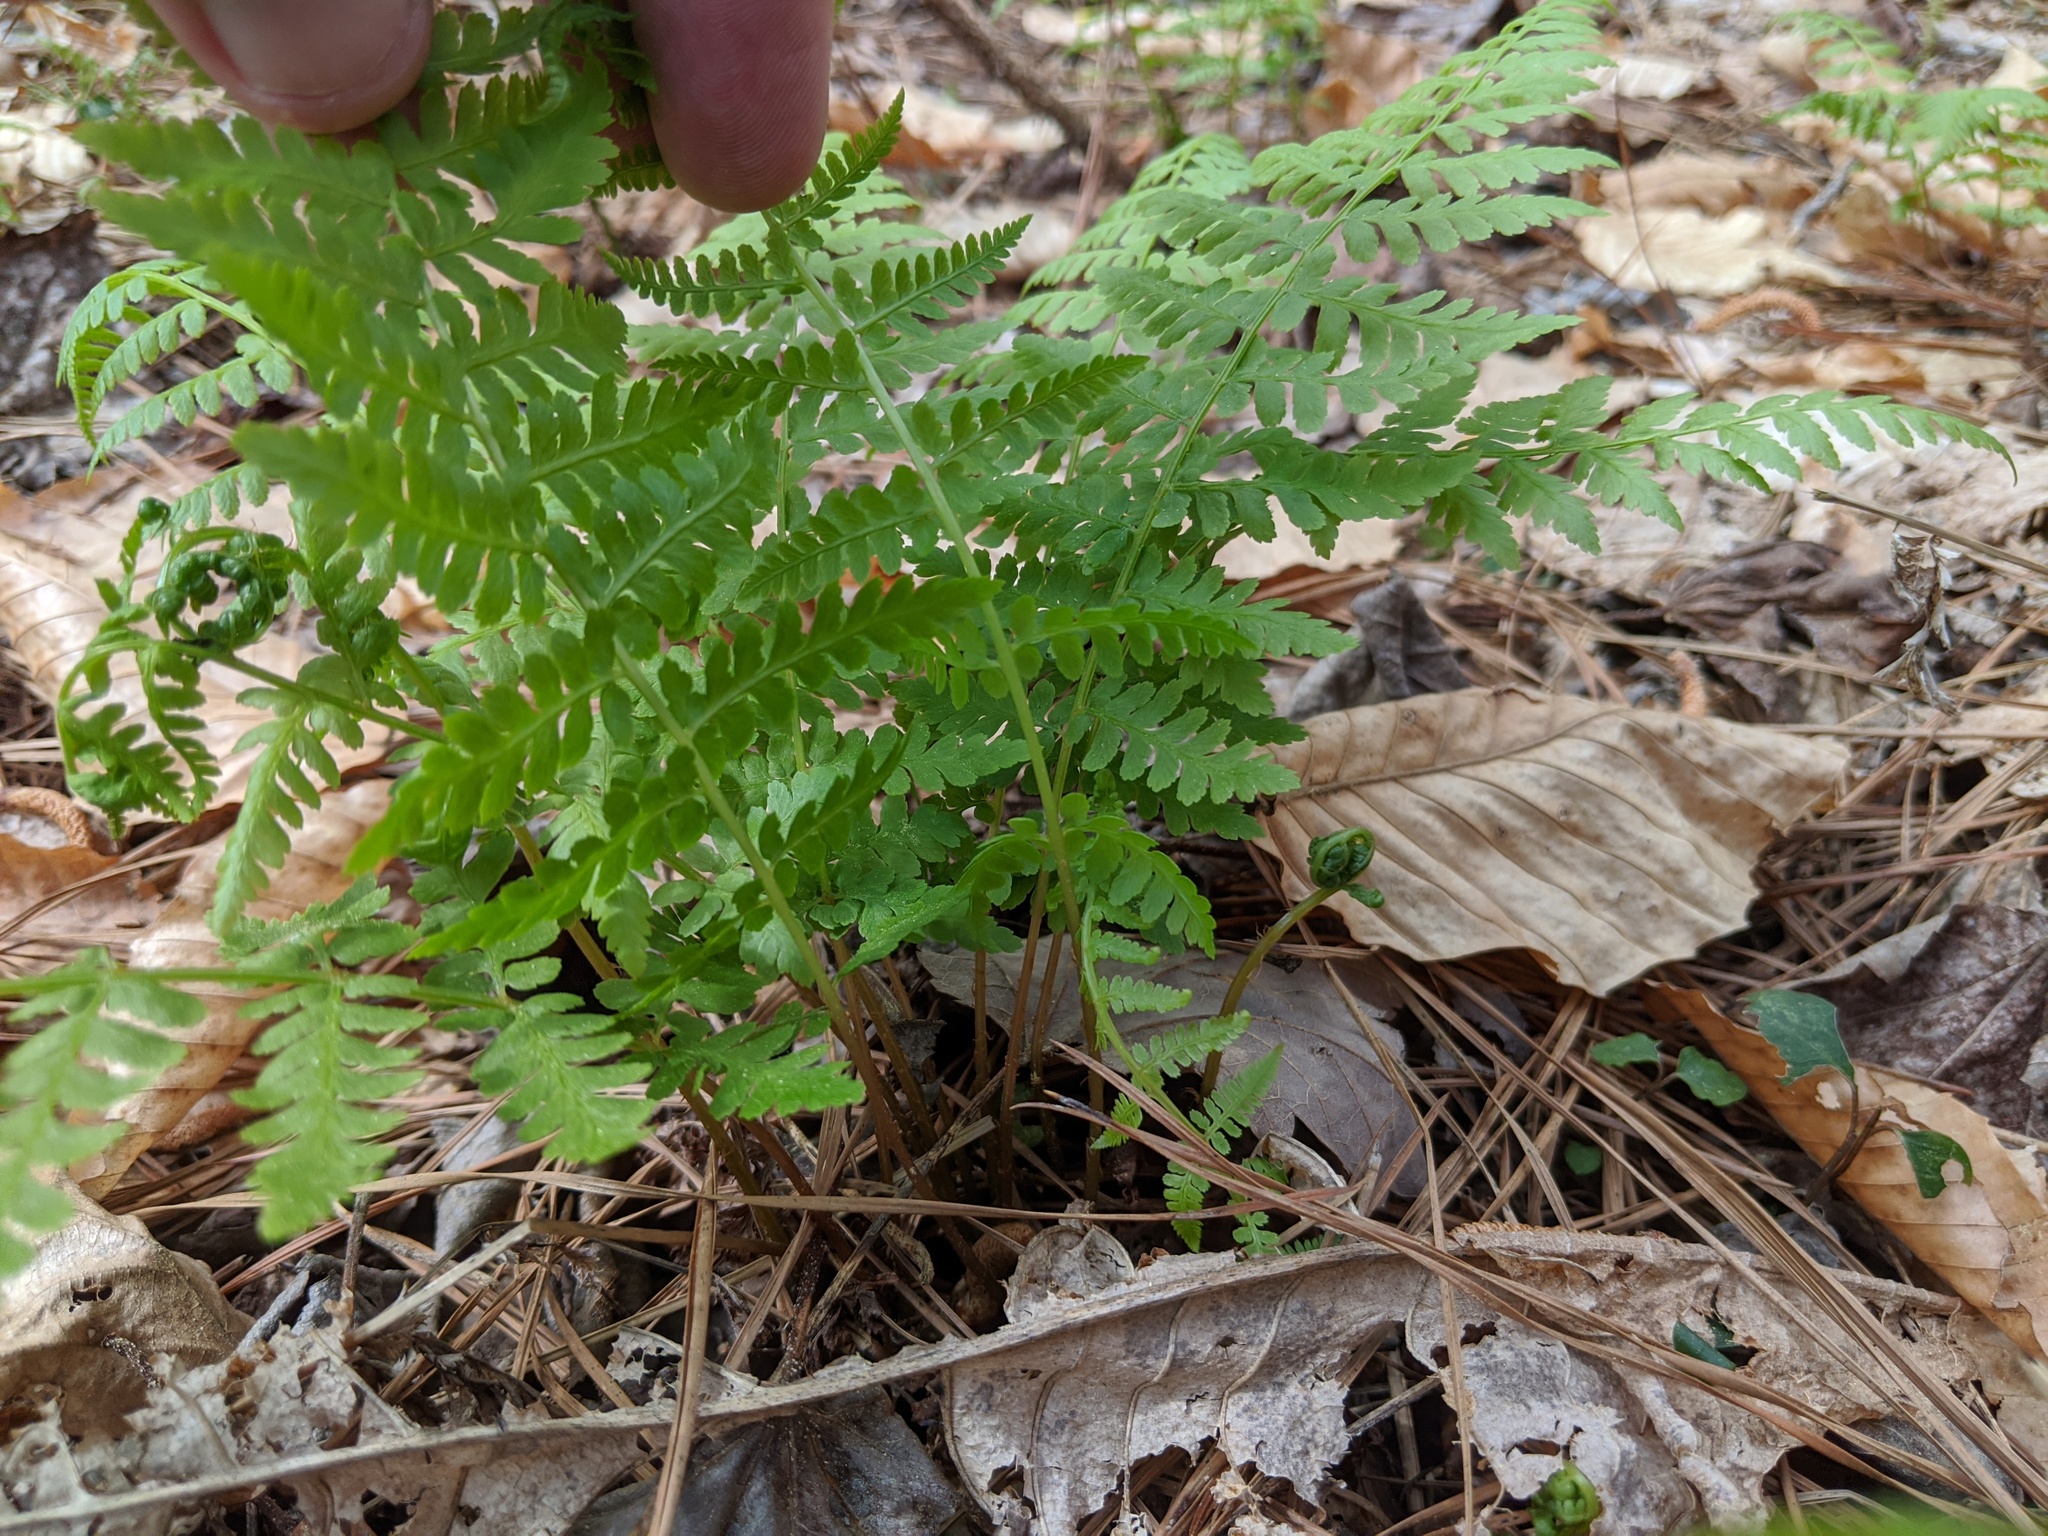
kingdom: Plantae
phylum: Tracheophyta
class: Polypodiopsida
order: Polypodiales
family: Athyriaceae
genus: Athyrium
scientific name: Athyrium asplenioides
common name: Southern lady fern
